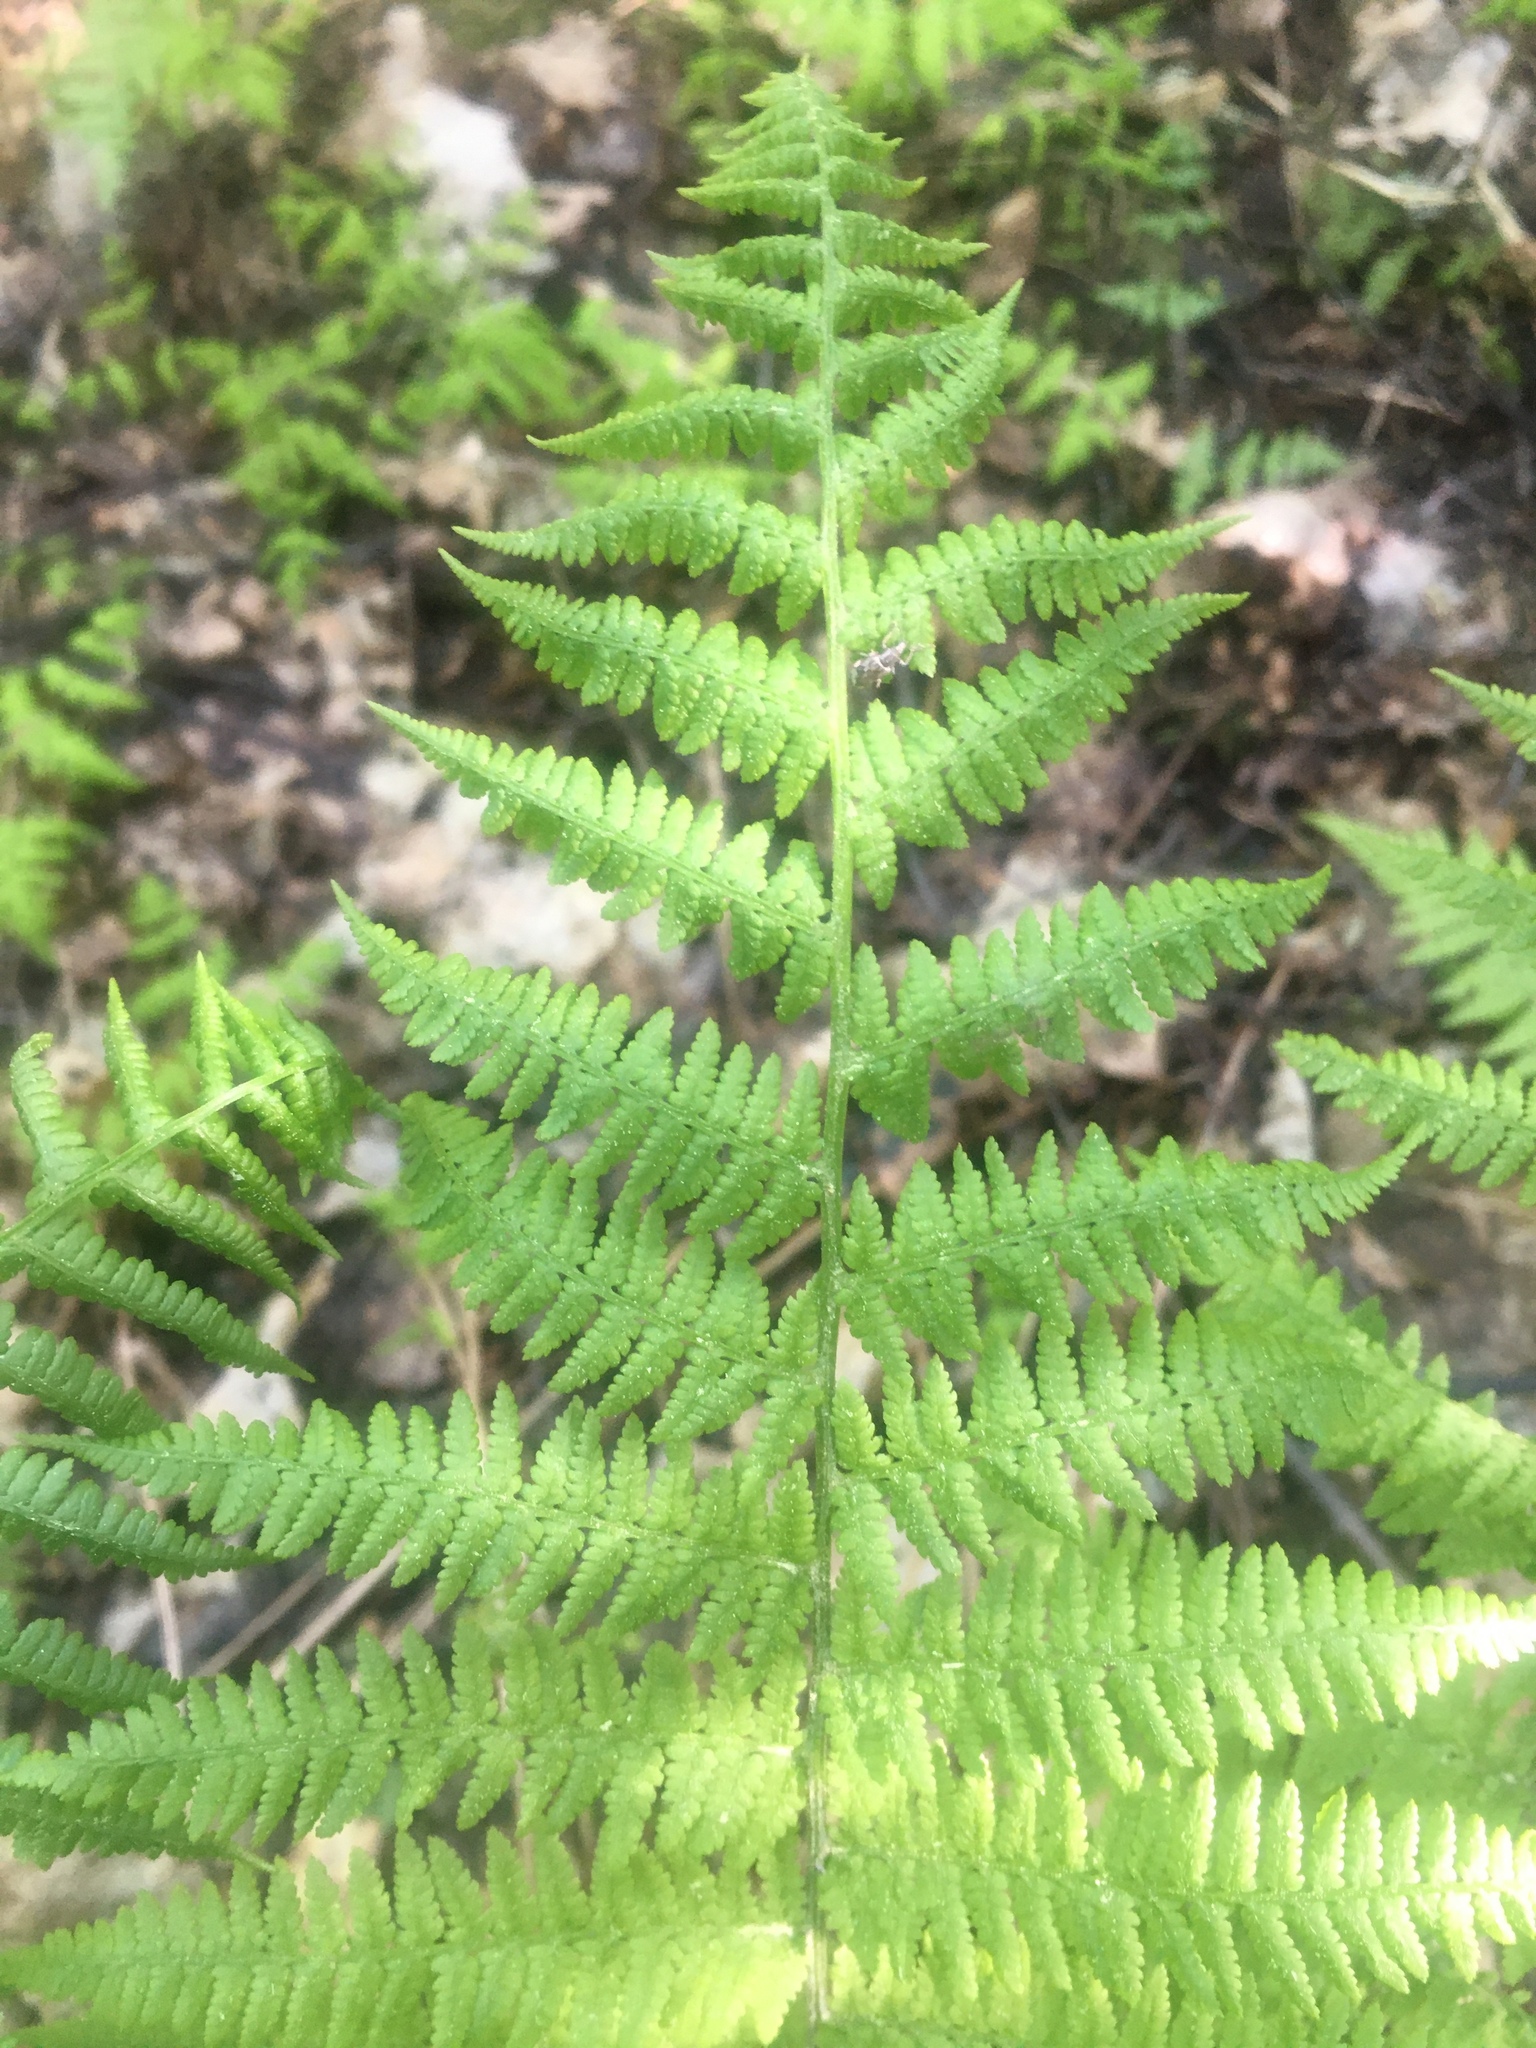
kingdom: Plantae
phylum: Tracheophyta
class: Polypodiopsida
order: Polypodiales
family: Athyriaceae
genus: Athyrium
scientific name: Athyrium filix-femina
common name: Lady fern
